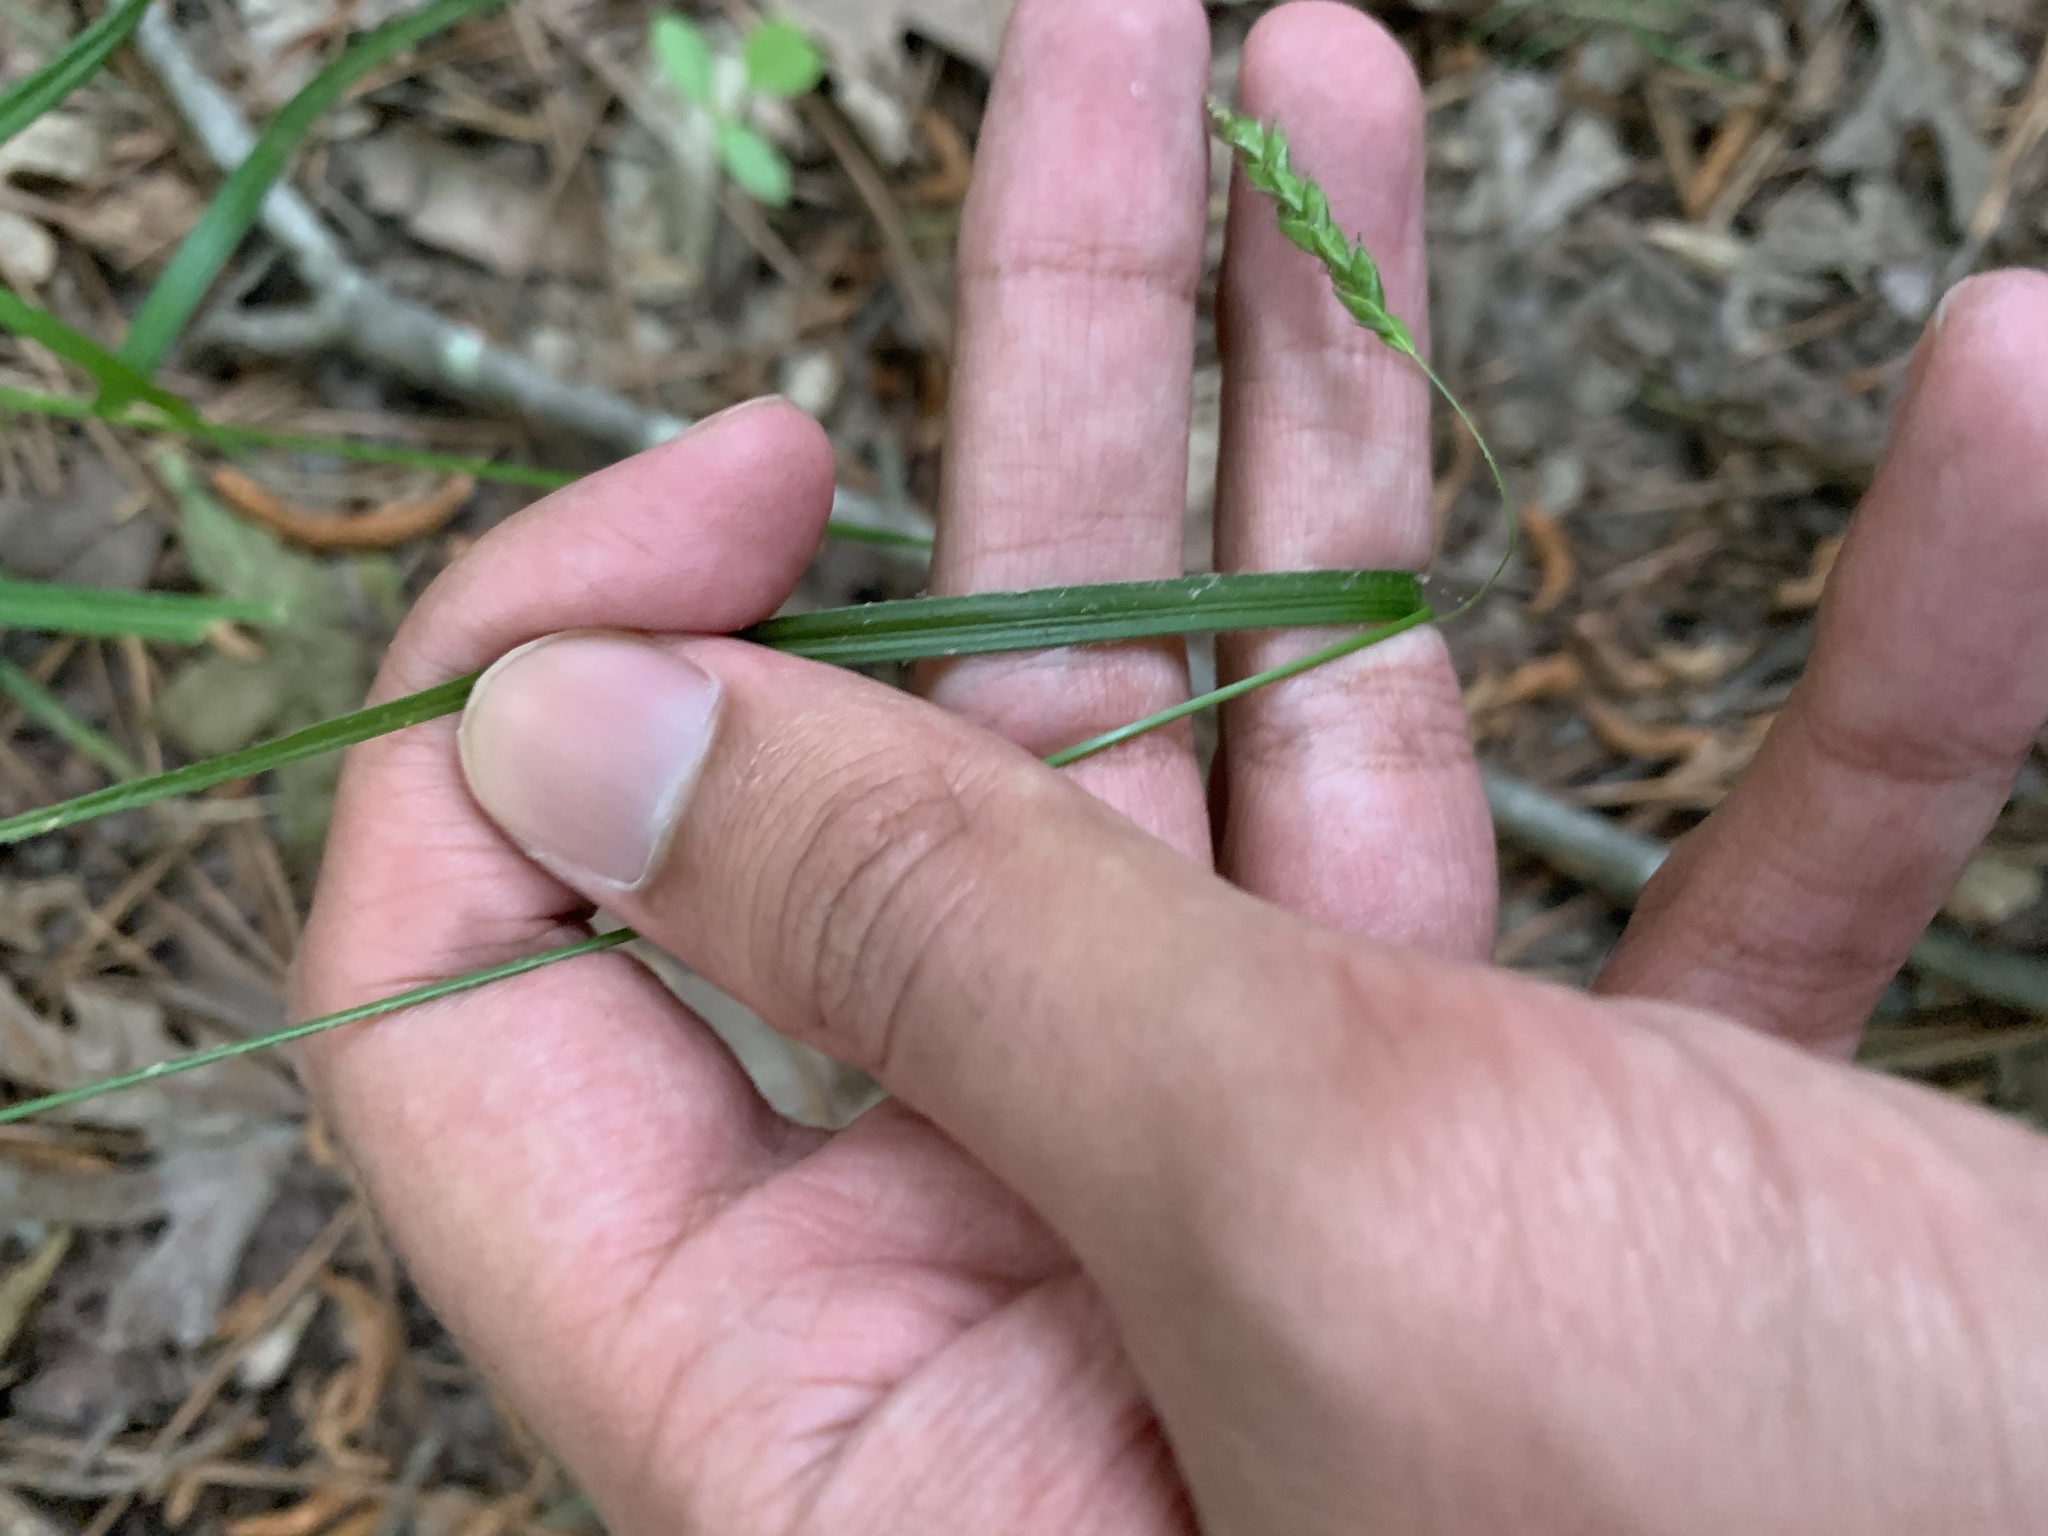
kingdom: Plantae
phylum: Tracheophyta
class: Liliopsida
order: Poales
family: Cyperaceae
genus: Carex
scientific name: Carex oxylepis
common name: Sharpscale sedge
